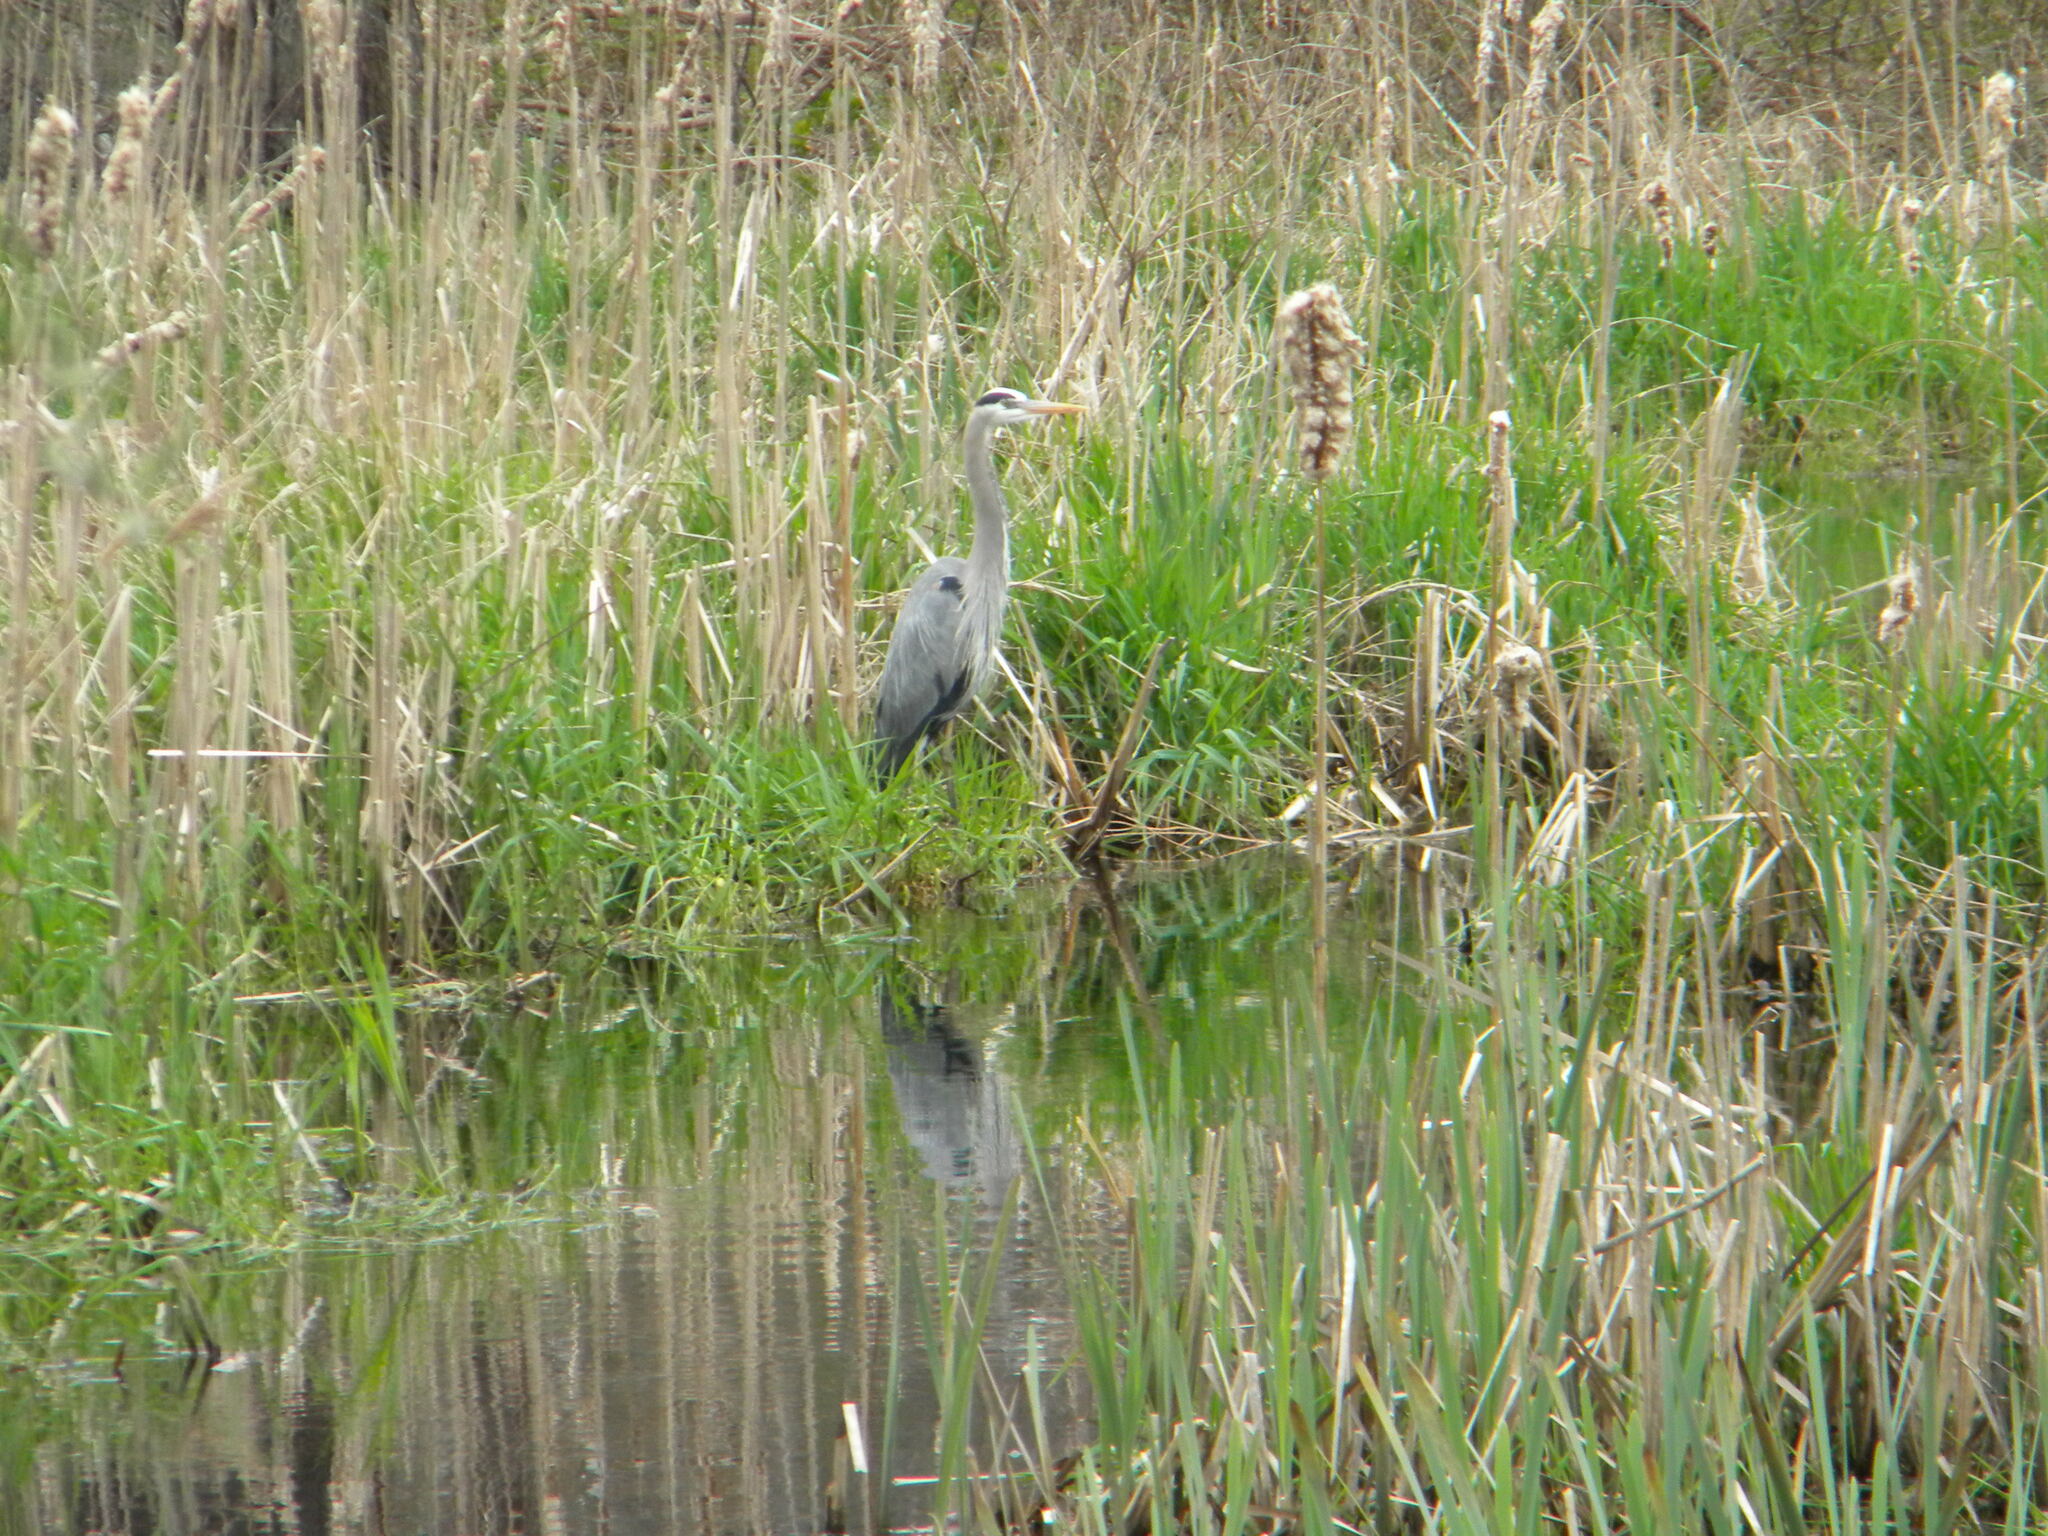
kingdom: Animalia
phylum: Chordata
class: Aves
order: Pelecaniformes
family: Ardeidae
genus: Ardea
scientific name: Ardea herodias
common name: Great blue heron
